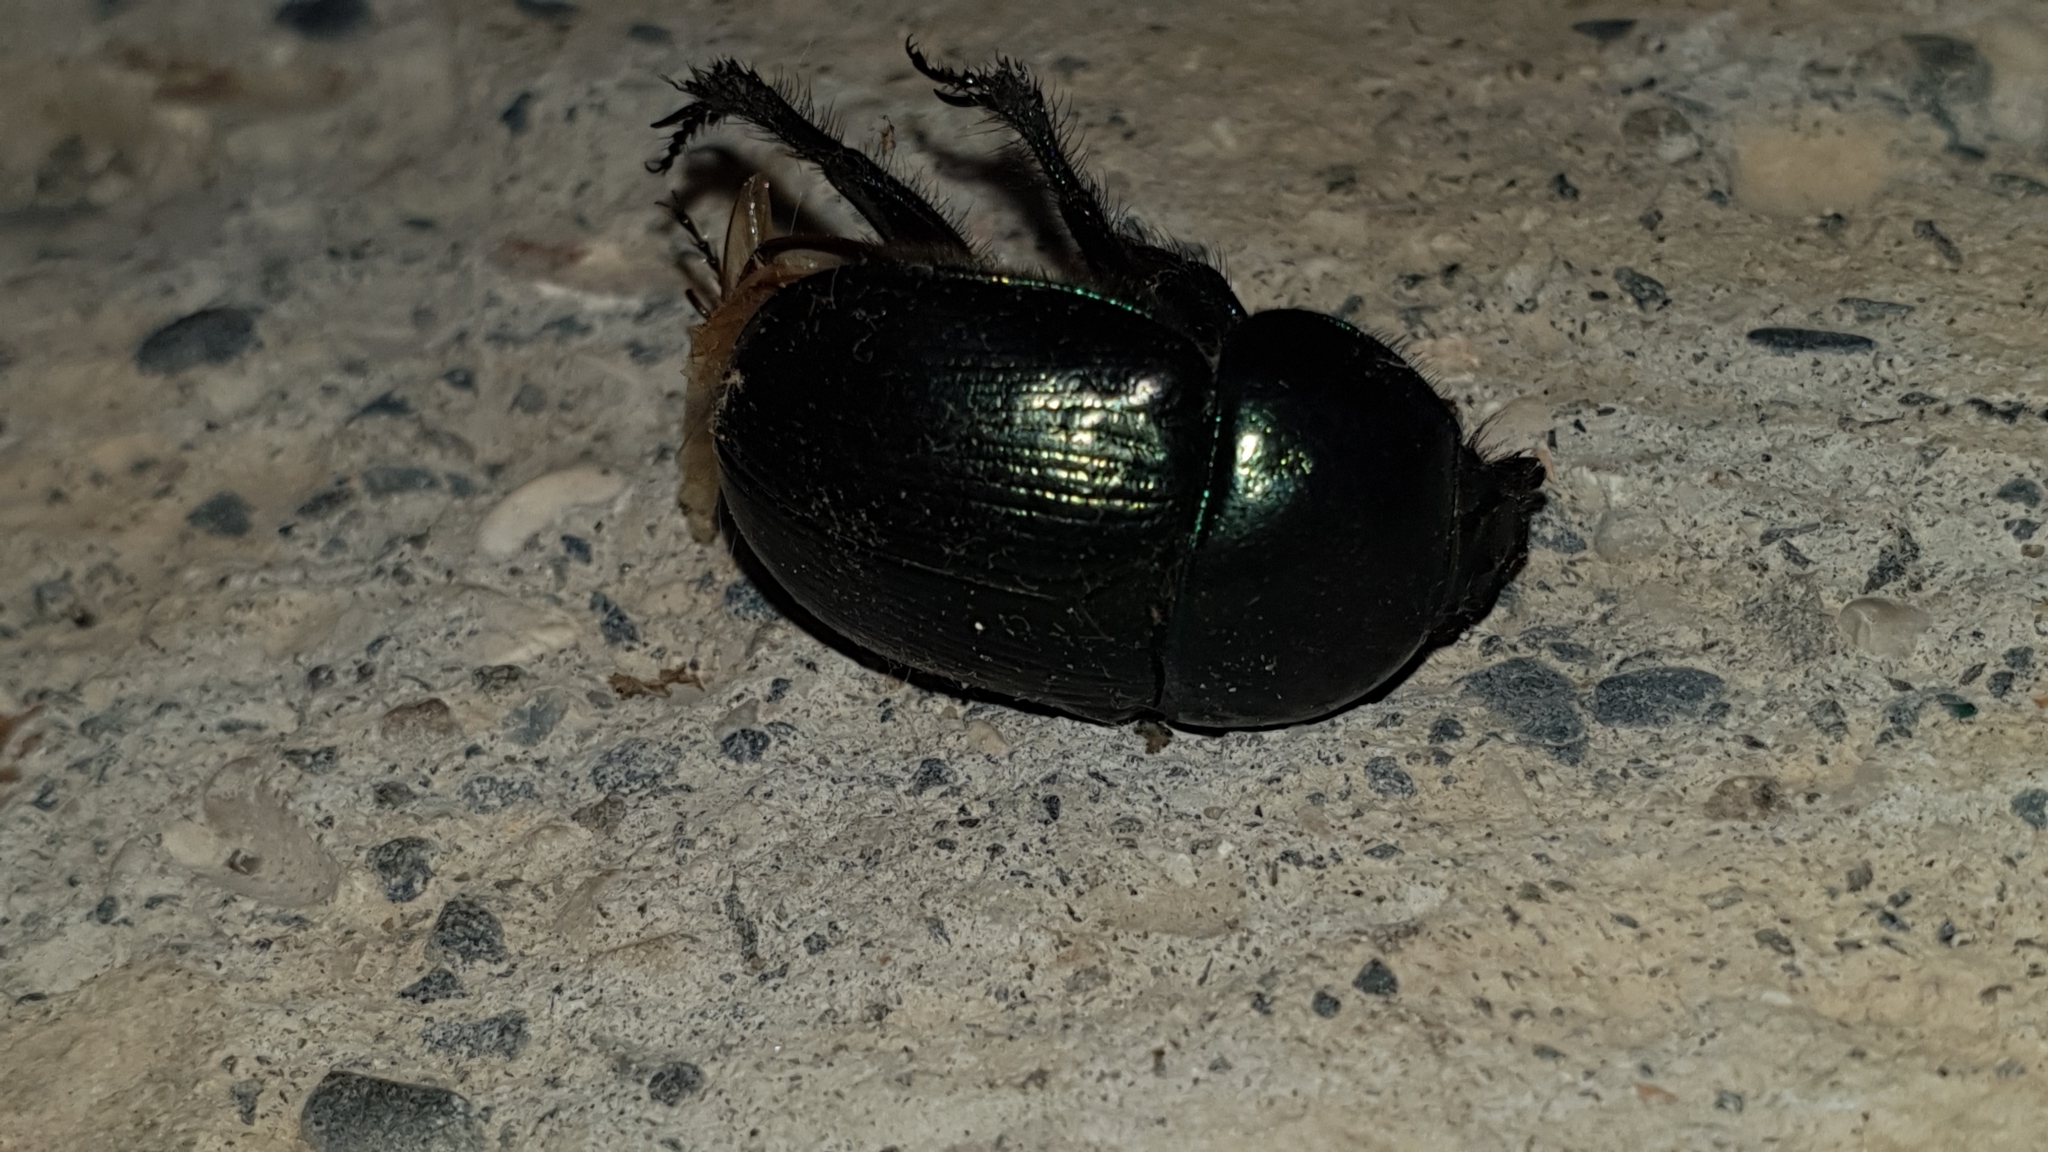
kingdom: Animalia
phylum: Arthropoda
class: Insecta
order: Coleoptera
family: Geotrupidae
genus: Geotrupes
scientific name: Geotrupes olgae
